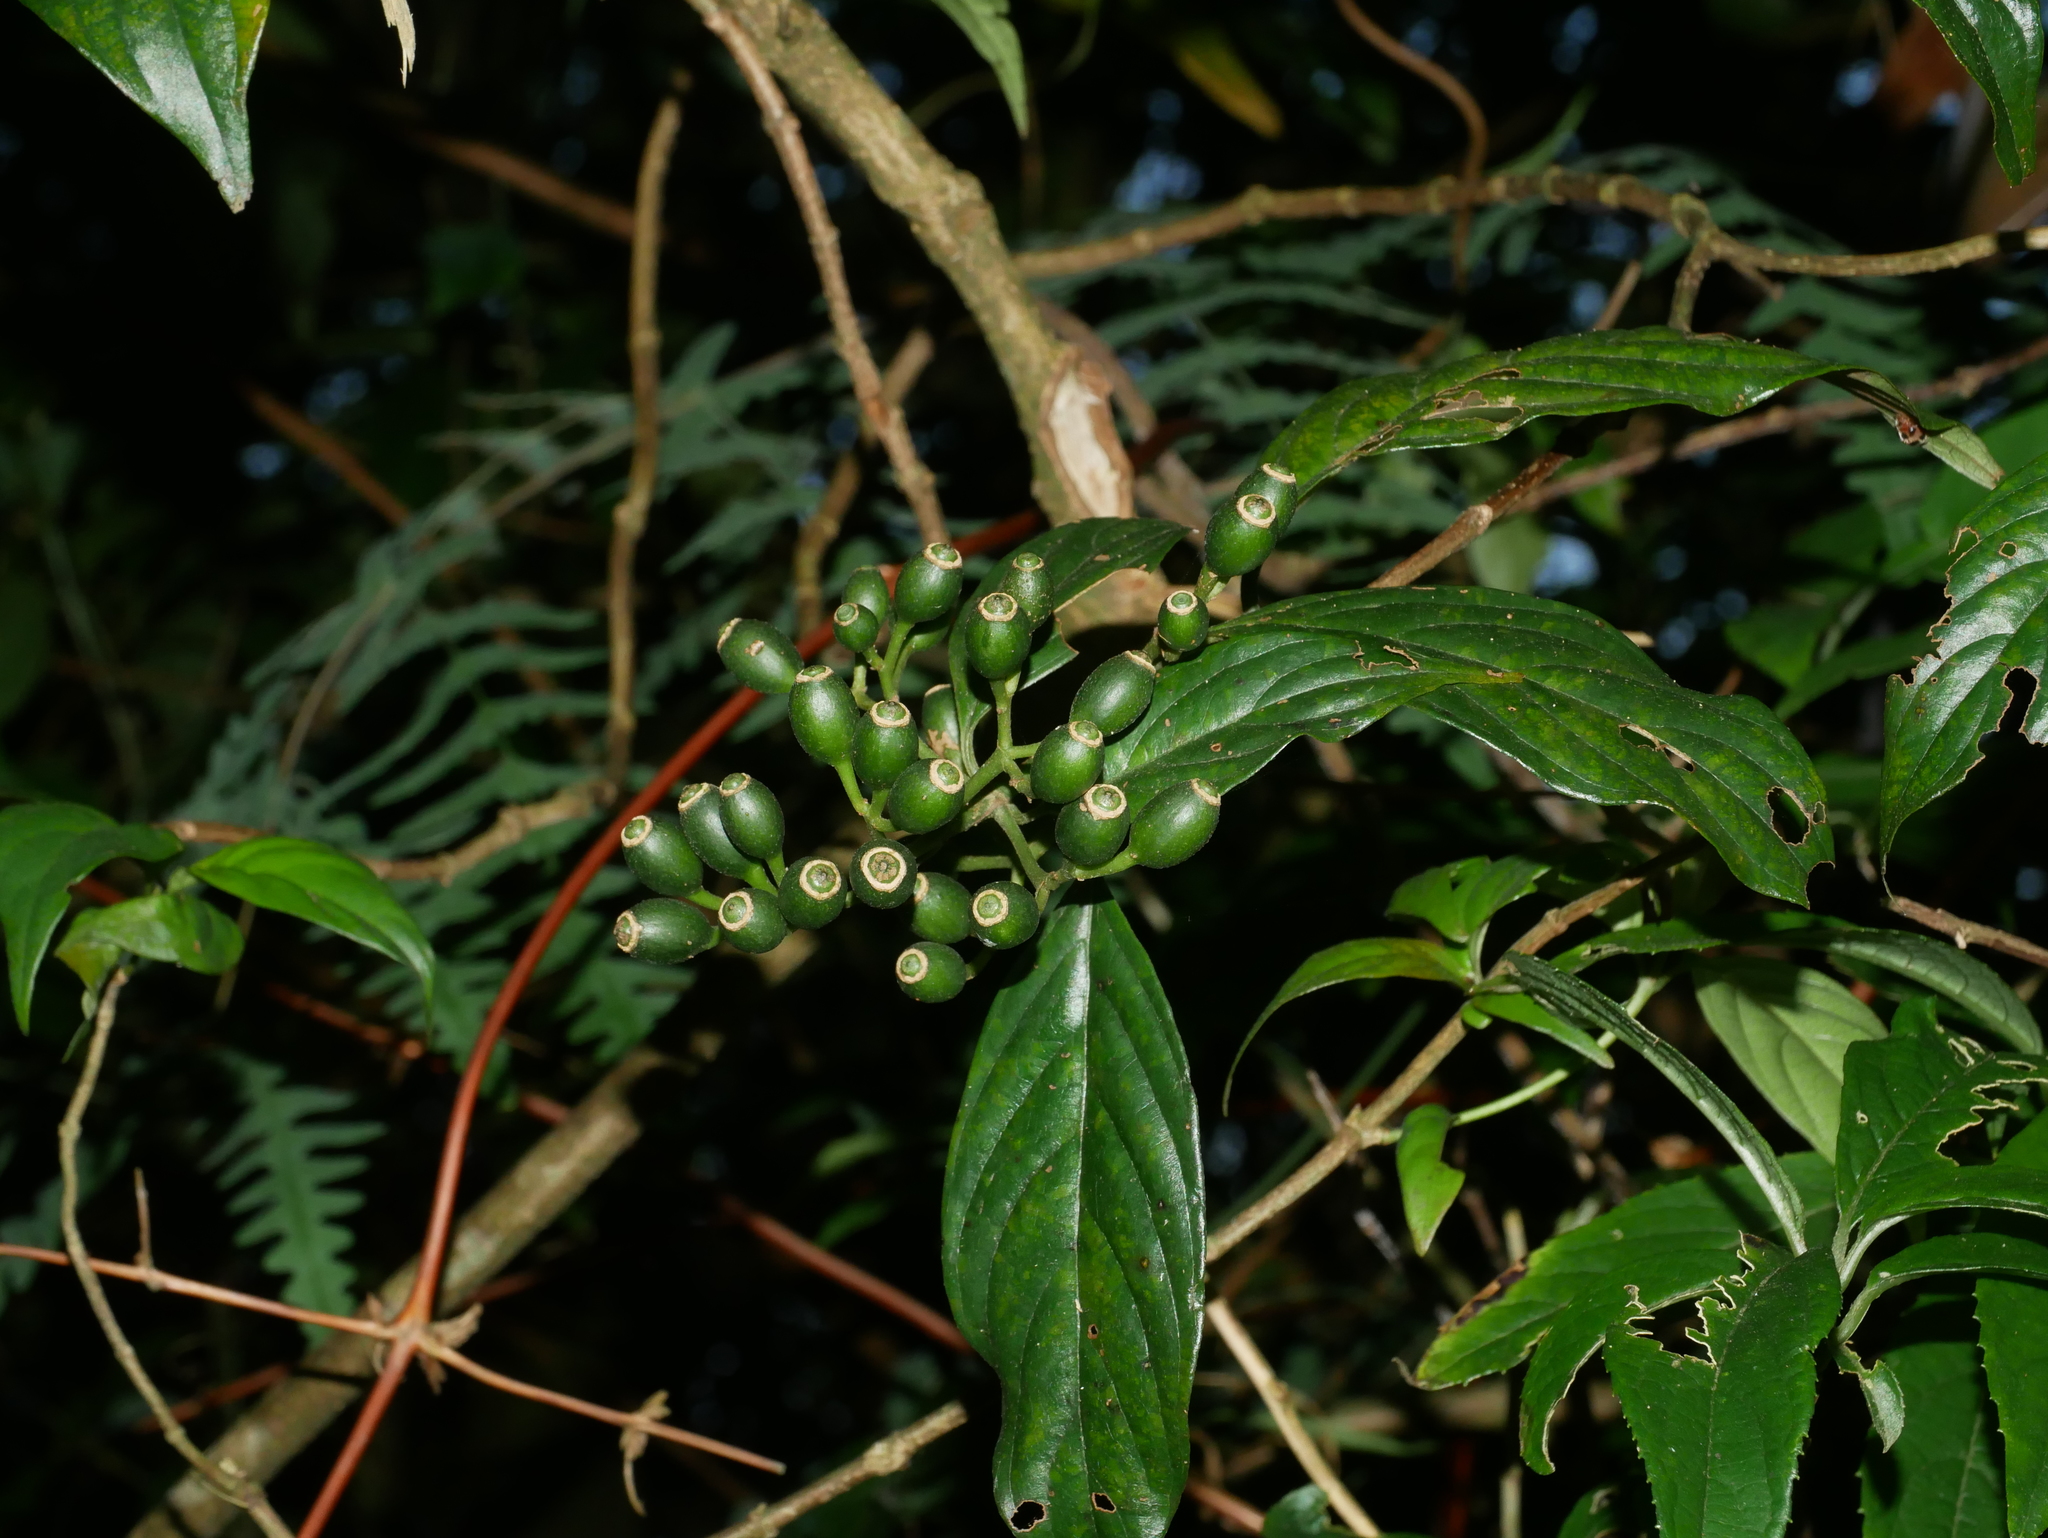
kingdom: Plantae
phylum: Tracheophyta
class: Magnoliopsida
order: Gentianales
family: Rubiaceae
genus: Mussaenda
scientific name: Mussaenda parviflora
